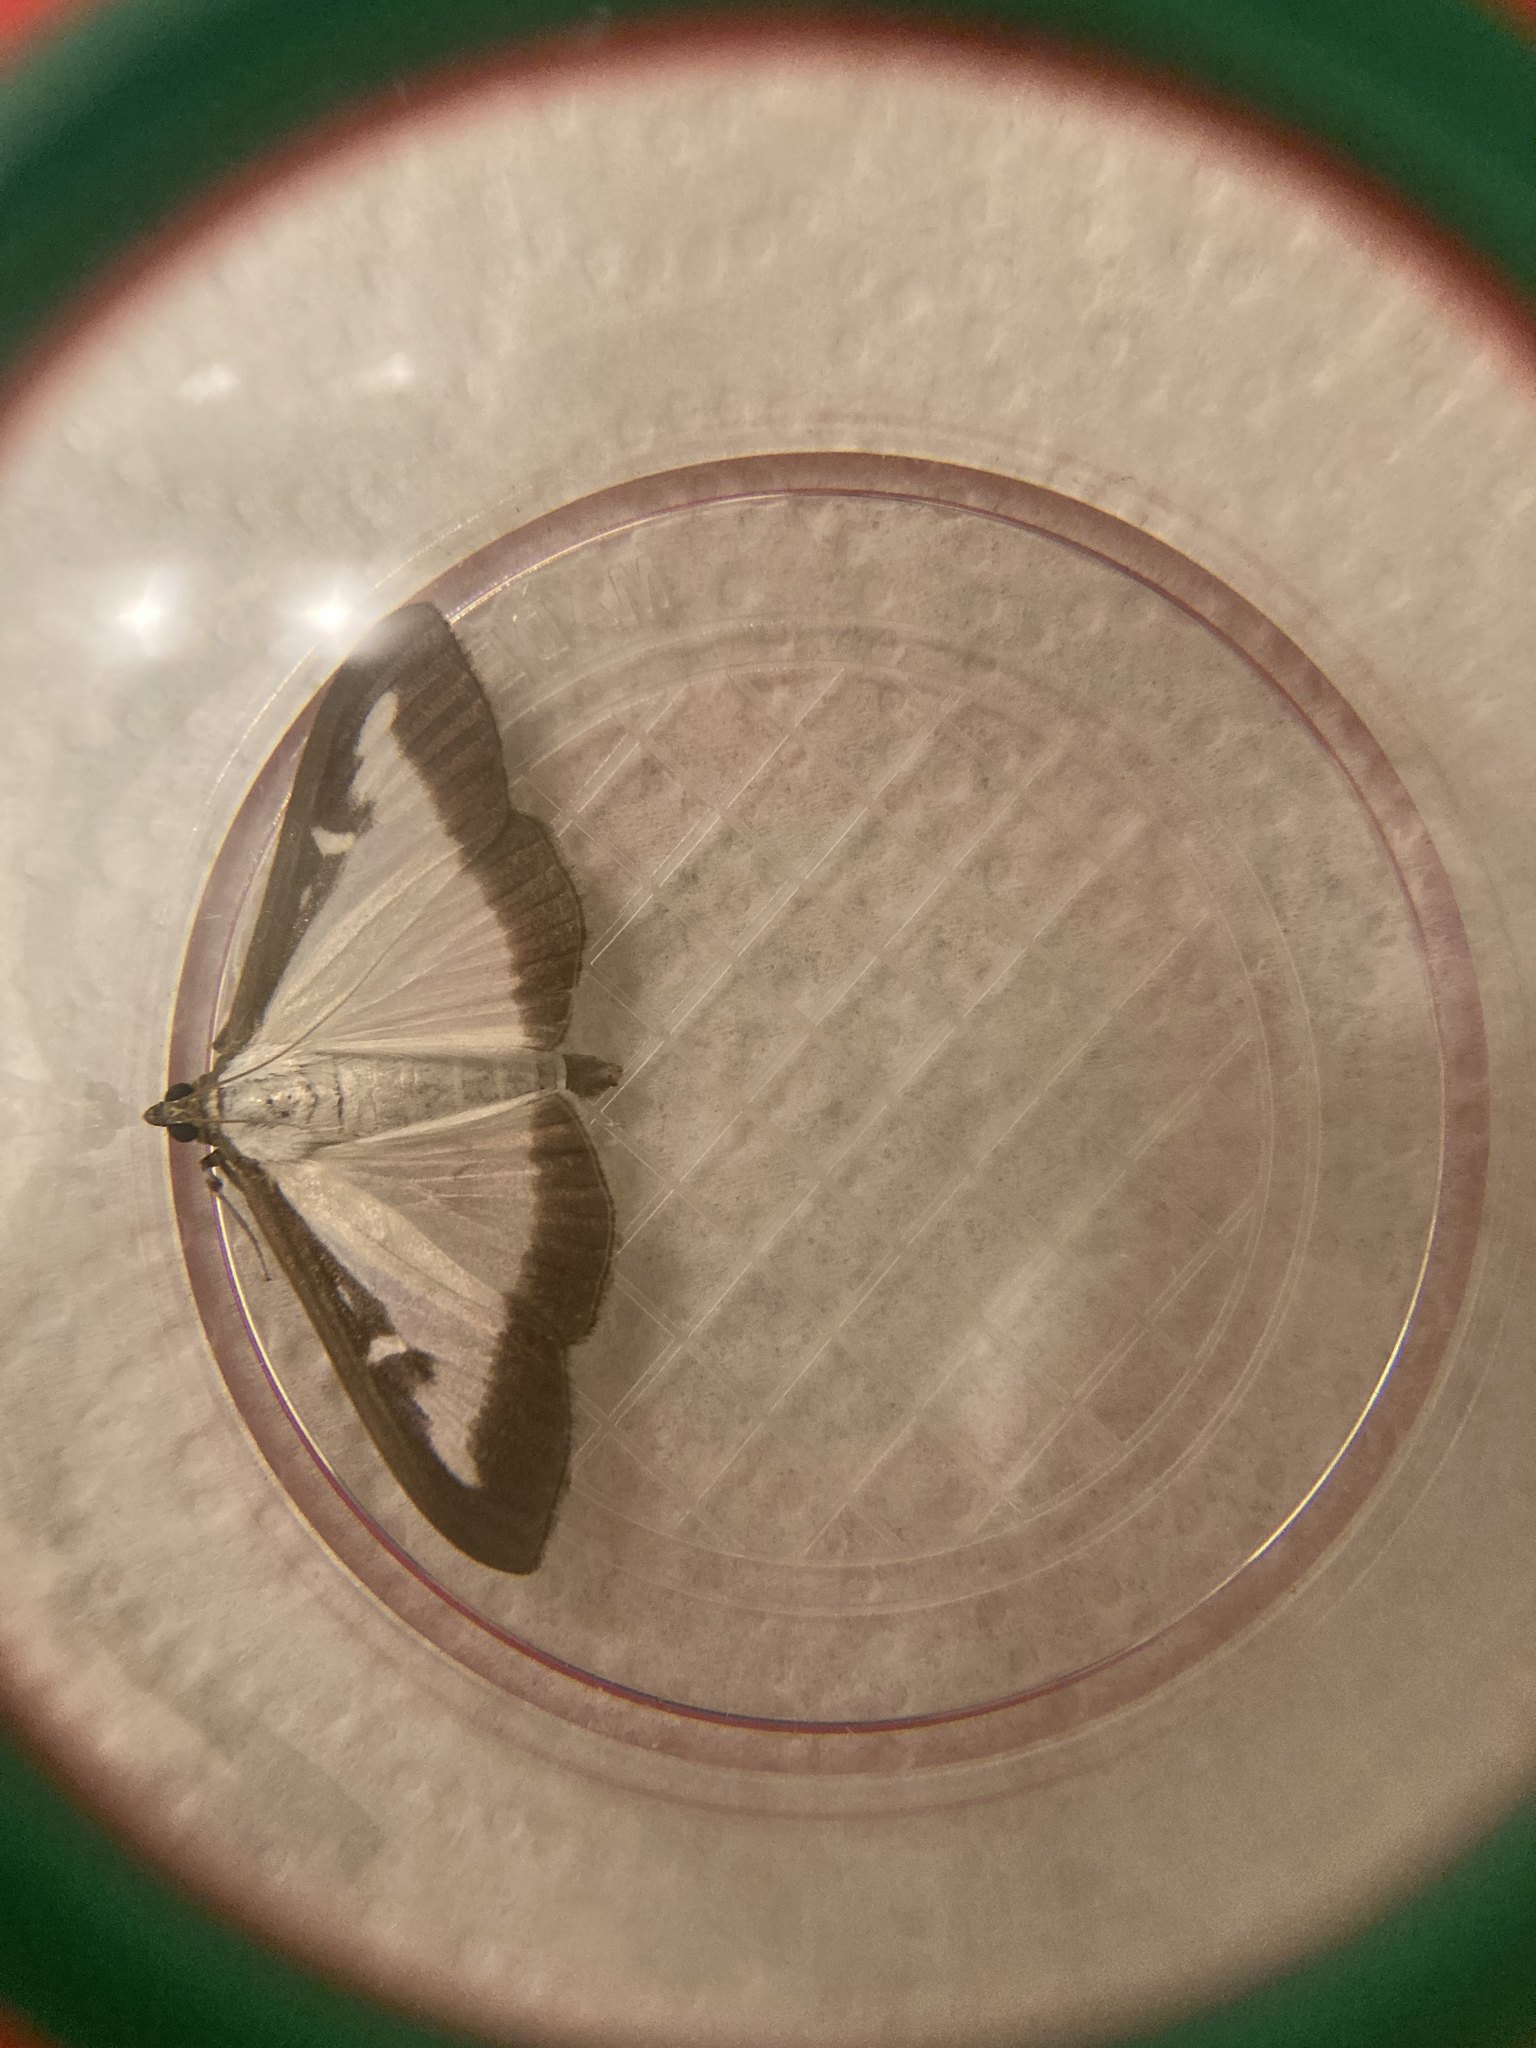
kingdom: Animalia
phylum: Arthropoda
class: Insecta
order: Lepidoptera
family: Crambidae
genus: Cydalima
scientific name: Cydalima perspectalis
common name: Box tree moth
